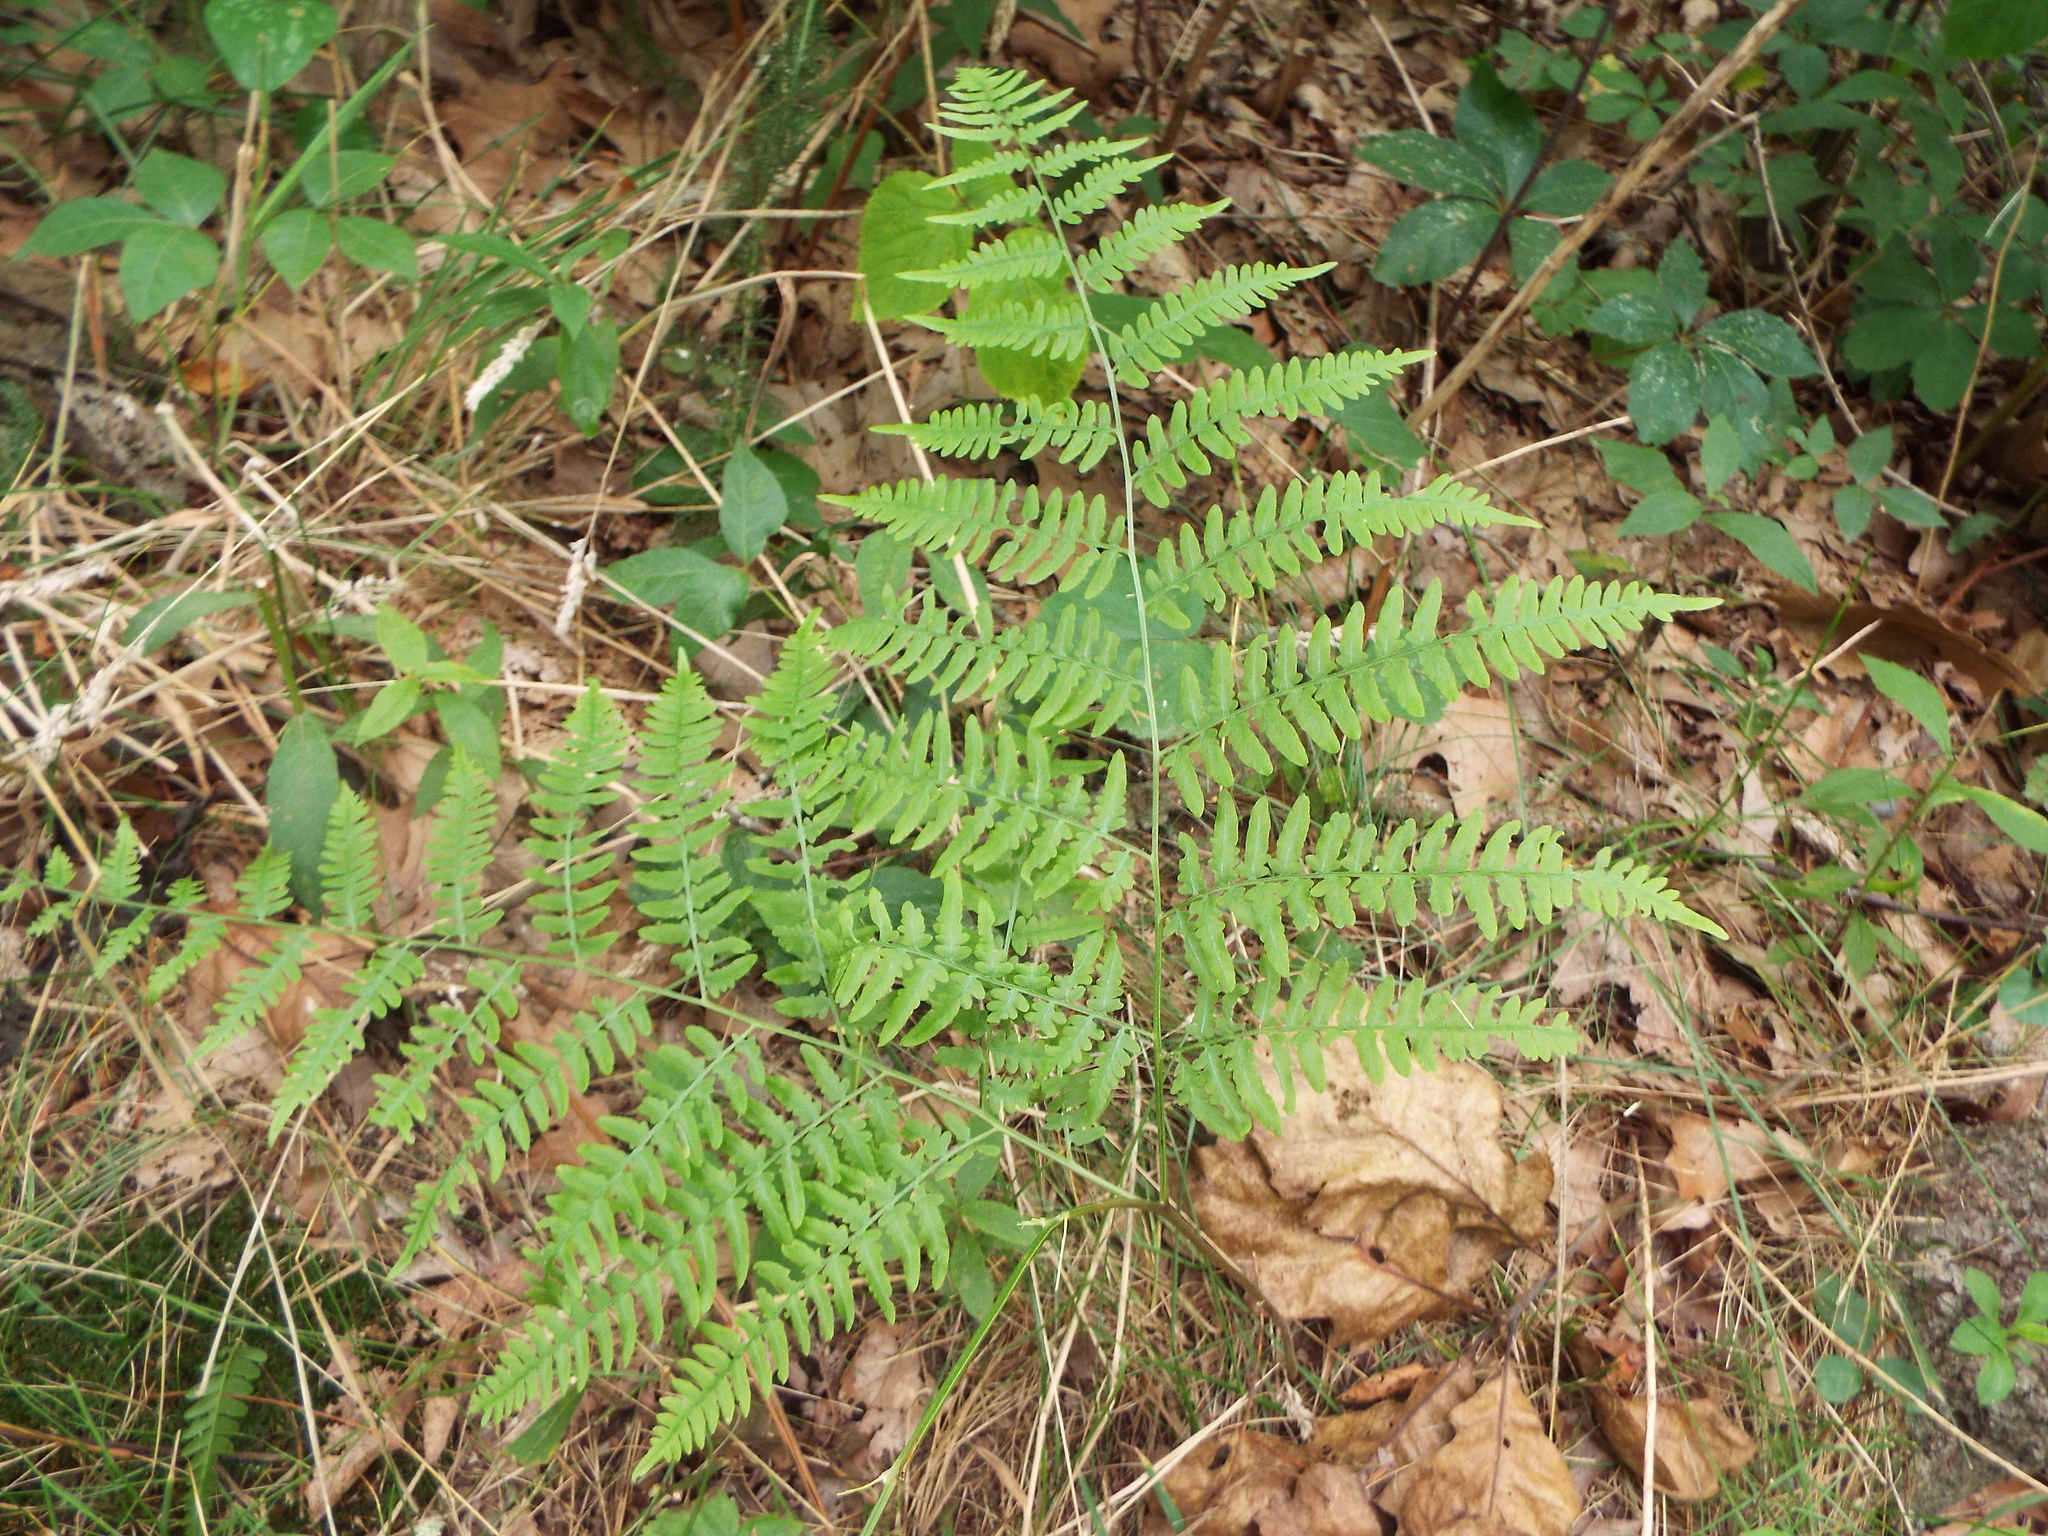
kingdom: Plantae
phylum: Tracheophyta
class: Polypodiopsida
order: Polypodiales
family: Dennstaedtiaceae
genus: Pteridium
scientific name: Pteridium aquilinum
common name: Bracken
